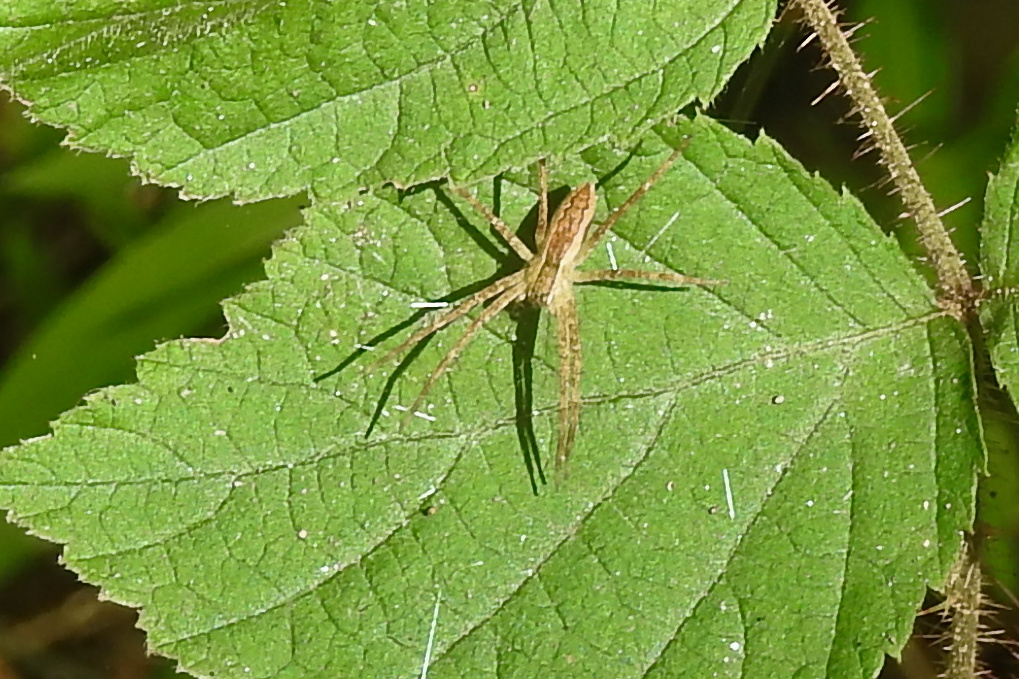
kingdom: Animalia
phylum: Arthropoda
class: Arachnida
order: Araneae
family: Pisauridae
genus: Pisaurina
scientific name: Pisaurina mira
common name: American nursery web spider
